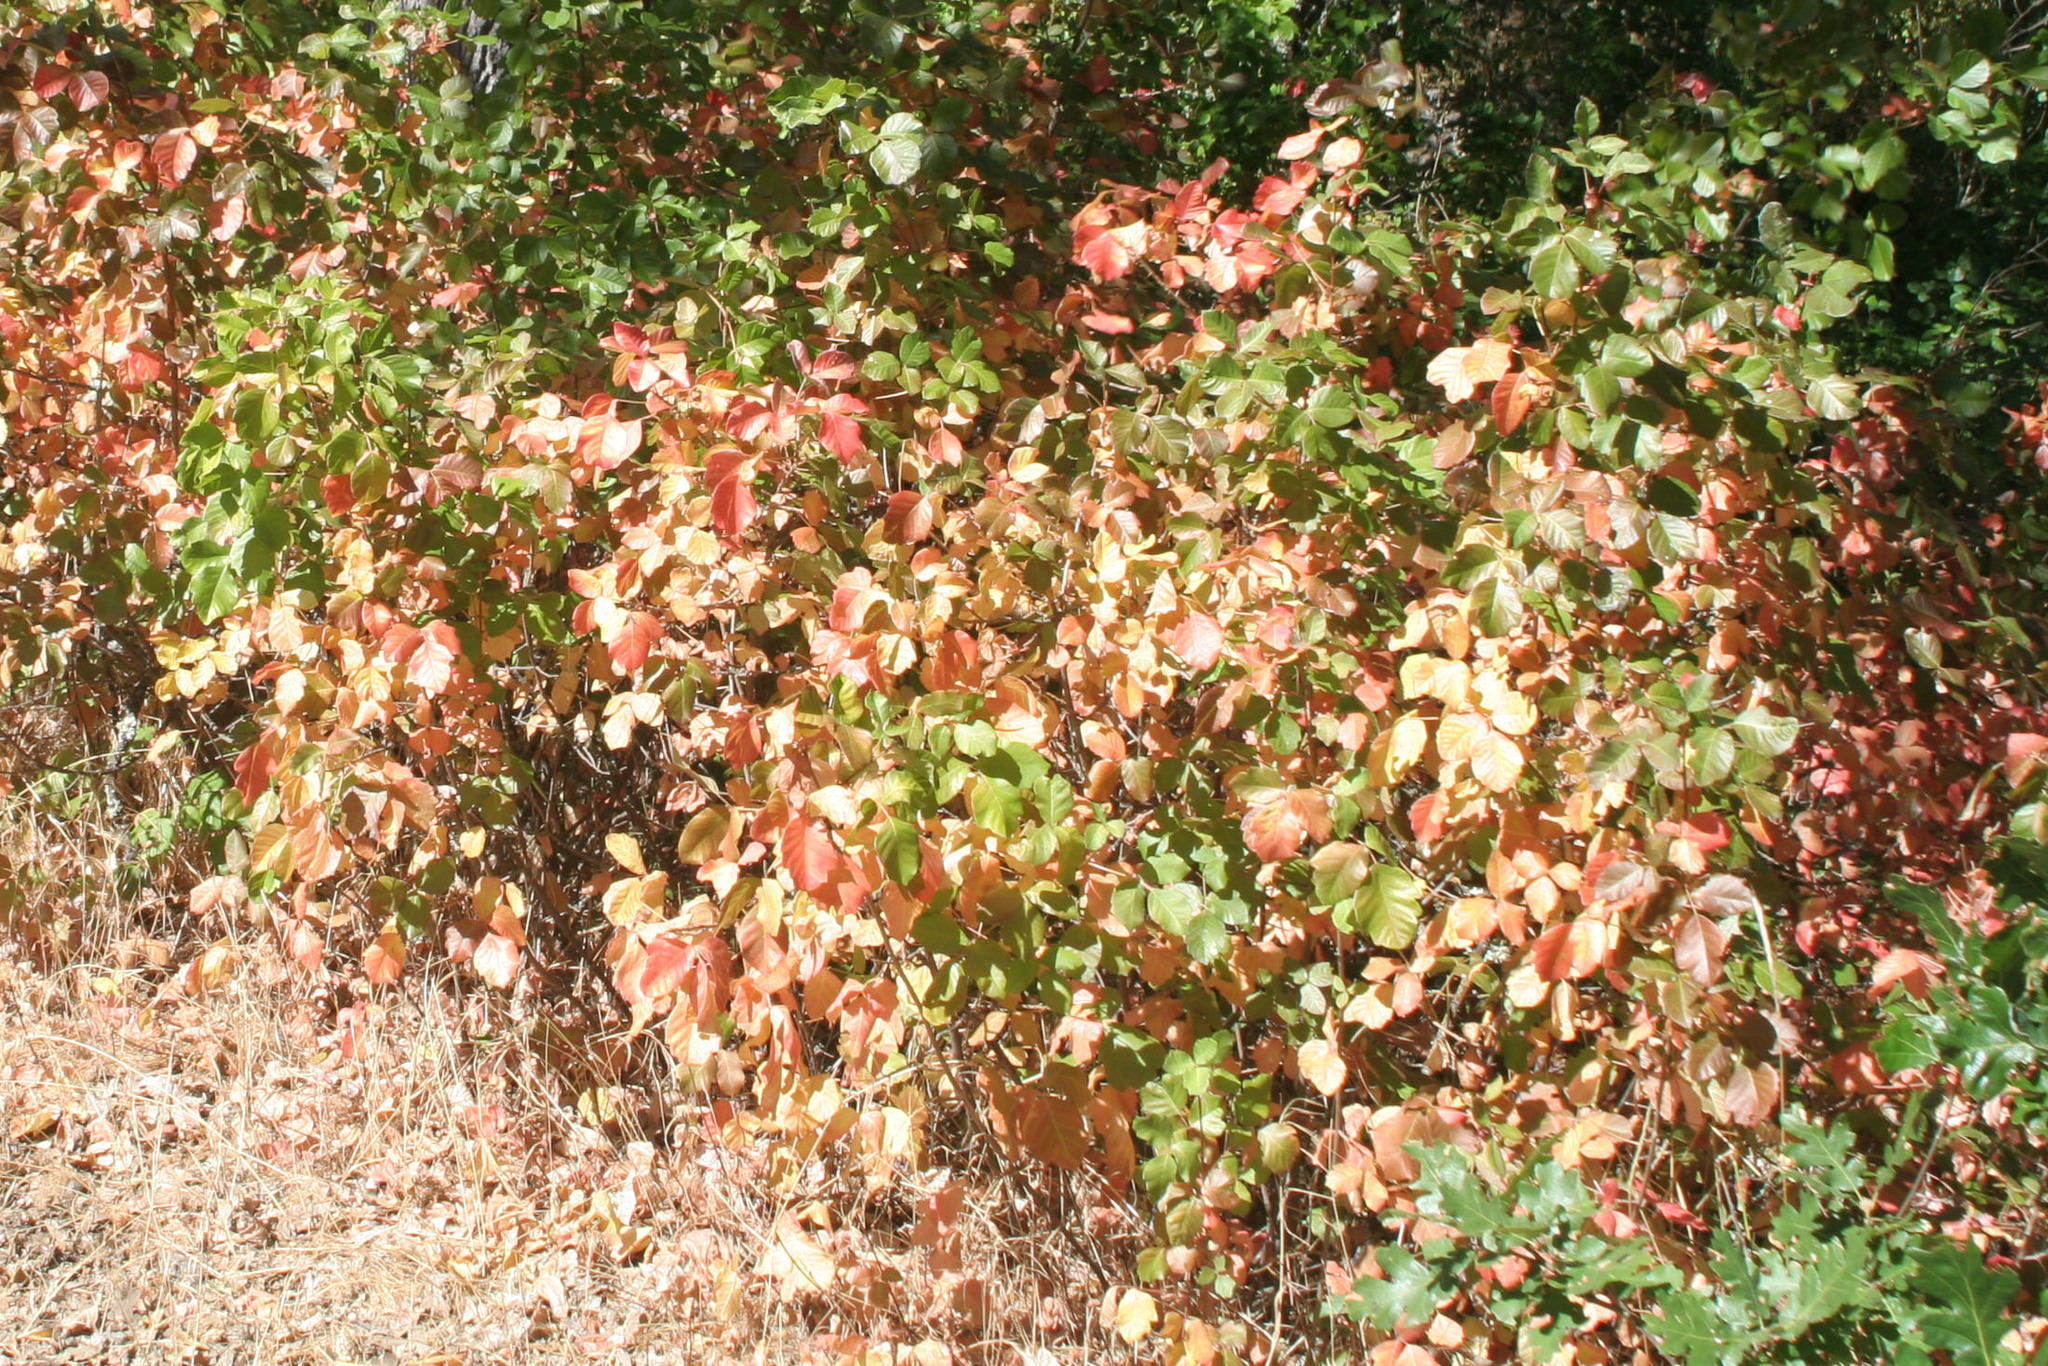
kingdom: Plantae
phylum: Tracheophyta
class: Magnoliopsida
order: Sapindales
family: Anacardiaceae
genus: Toxicodendron
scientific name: Toxicodendron diversilobum
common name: Pacific poison-oak
